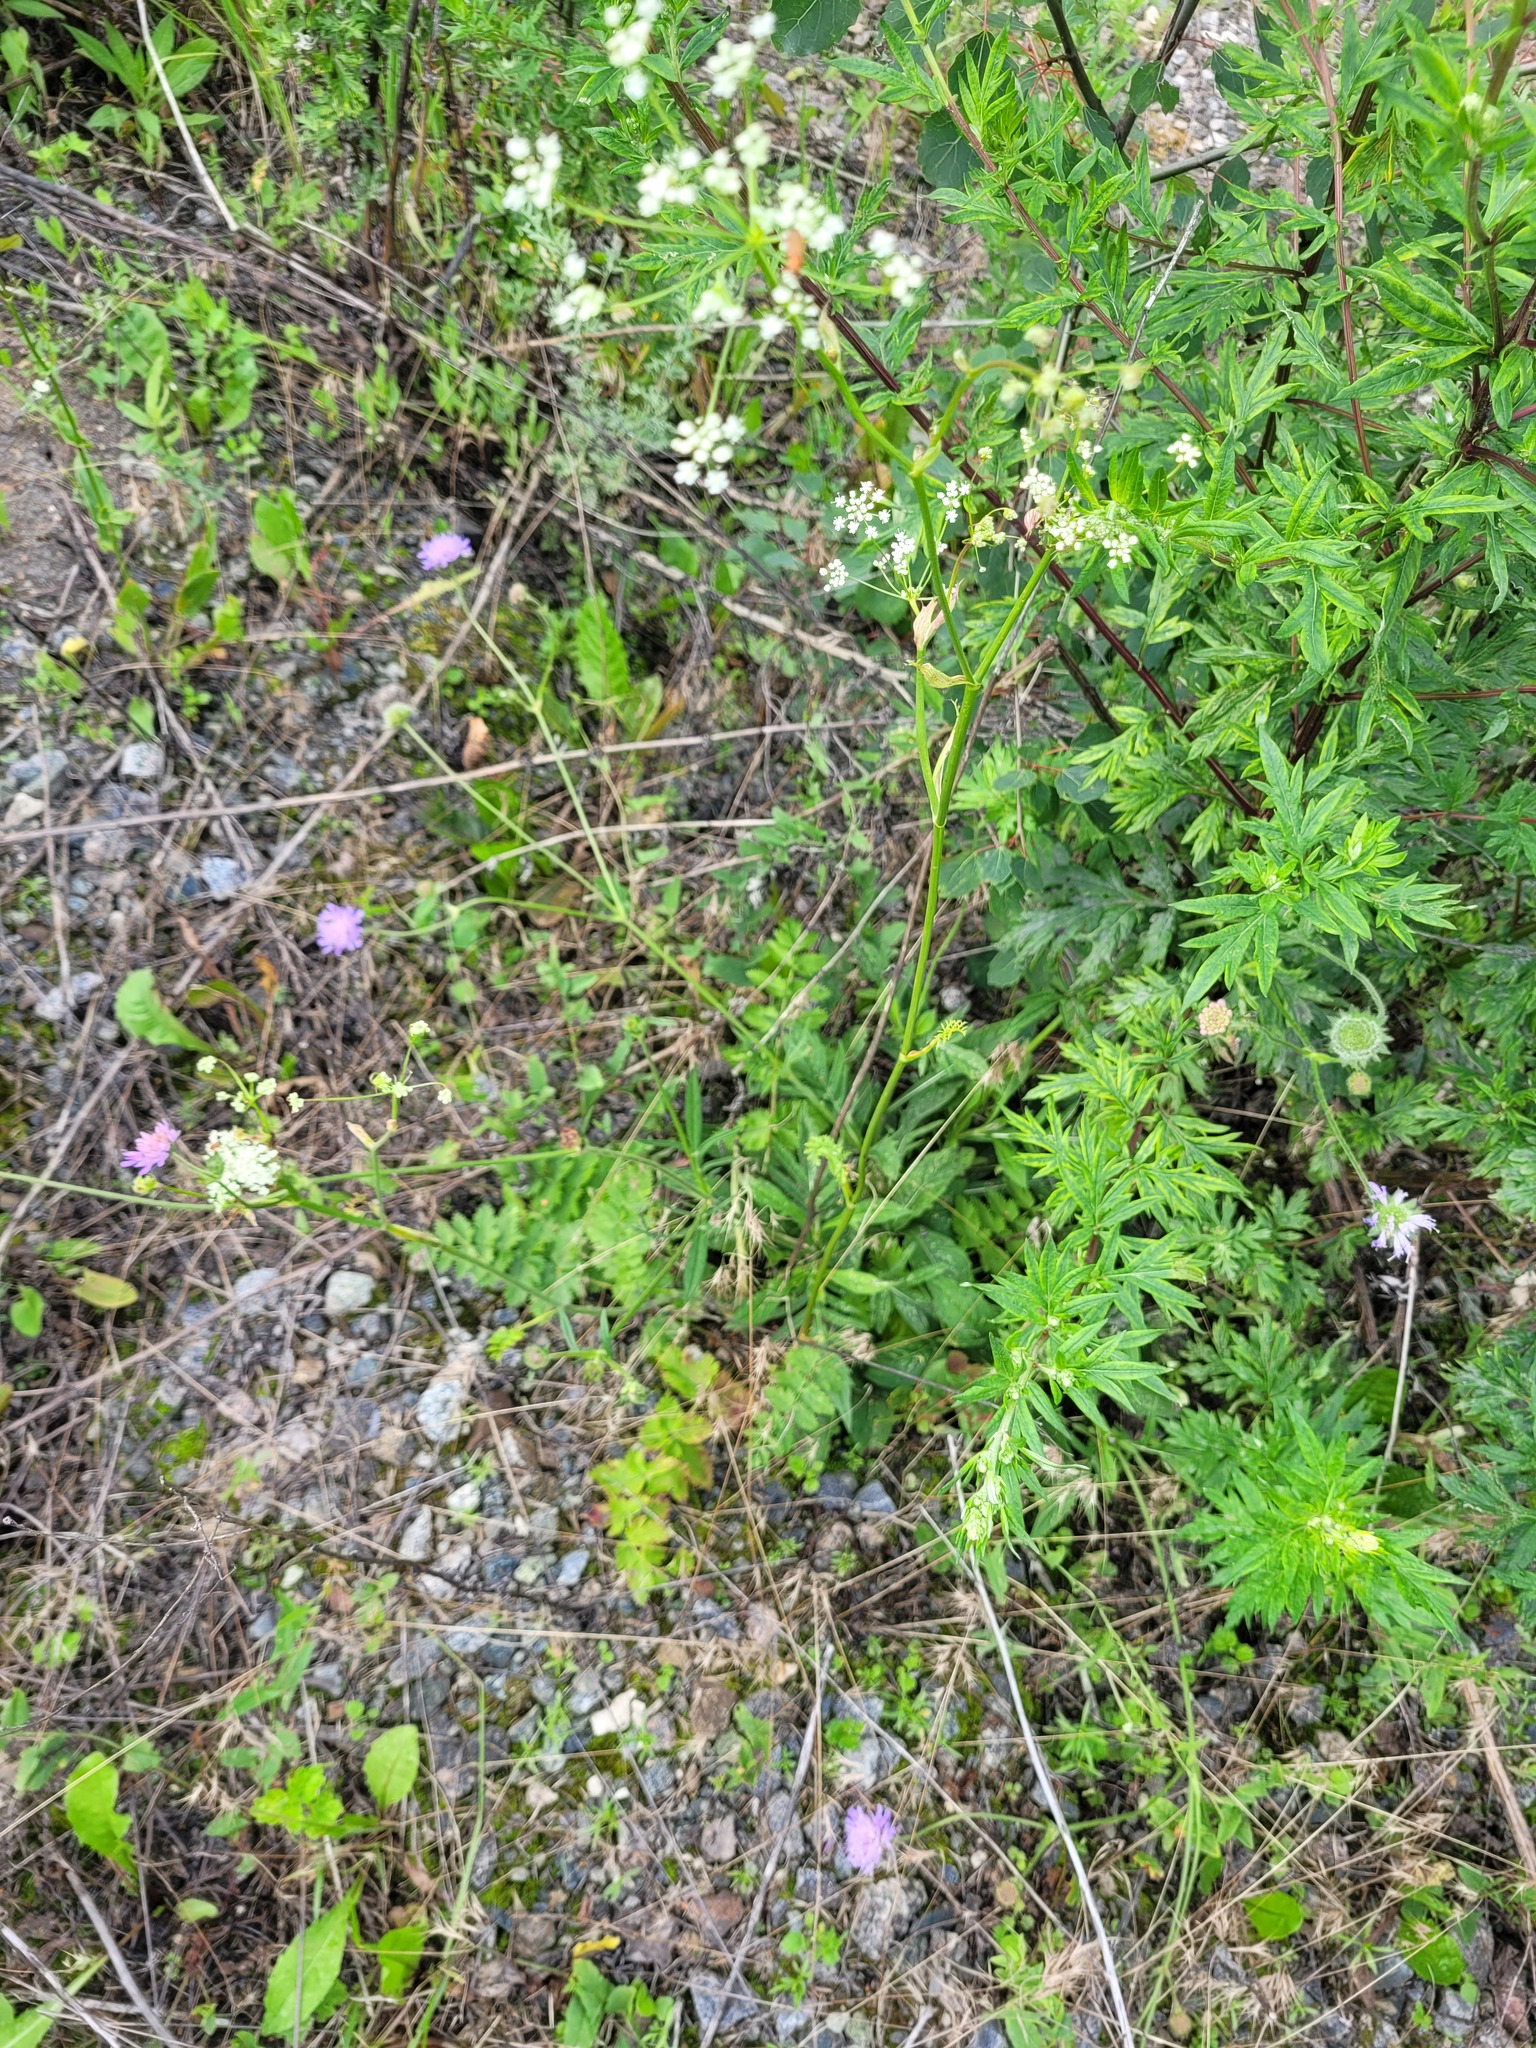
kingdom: Plantae
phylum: Tracheophyta
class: Magnoliopsida
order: Apiales
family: Apiaceae
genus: Pimpinella
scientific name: Pimpinella saxifraga
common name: Burnet-saxifrage
